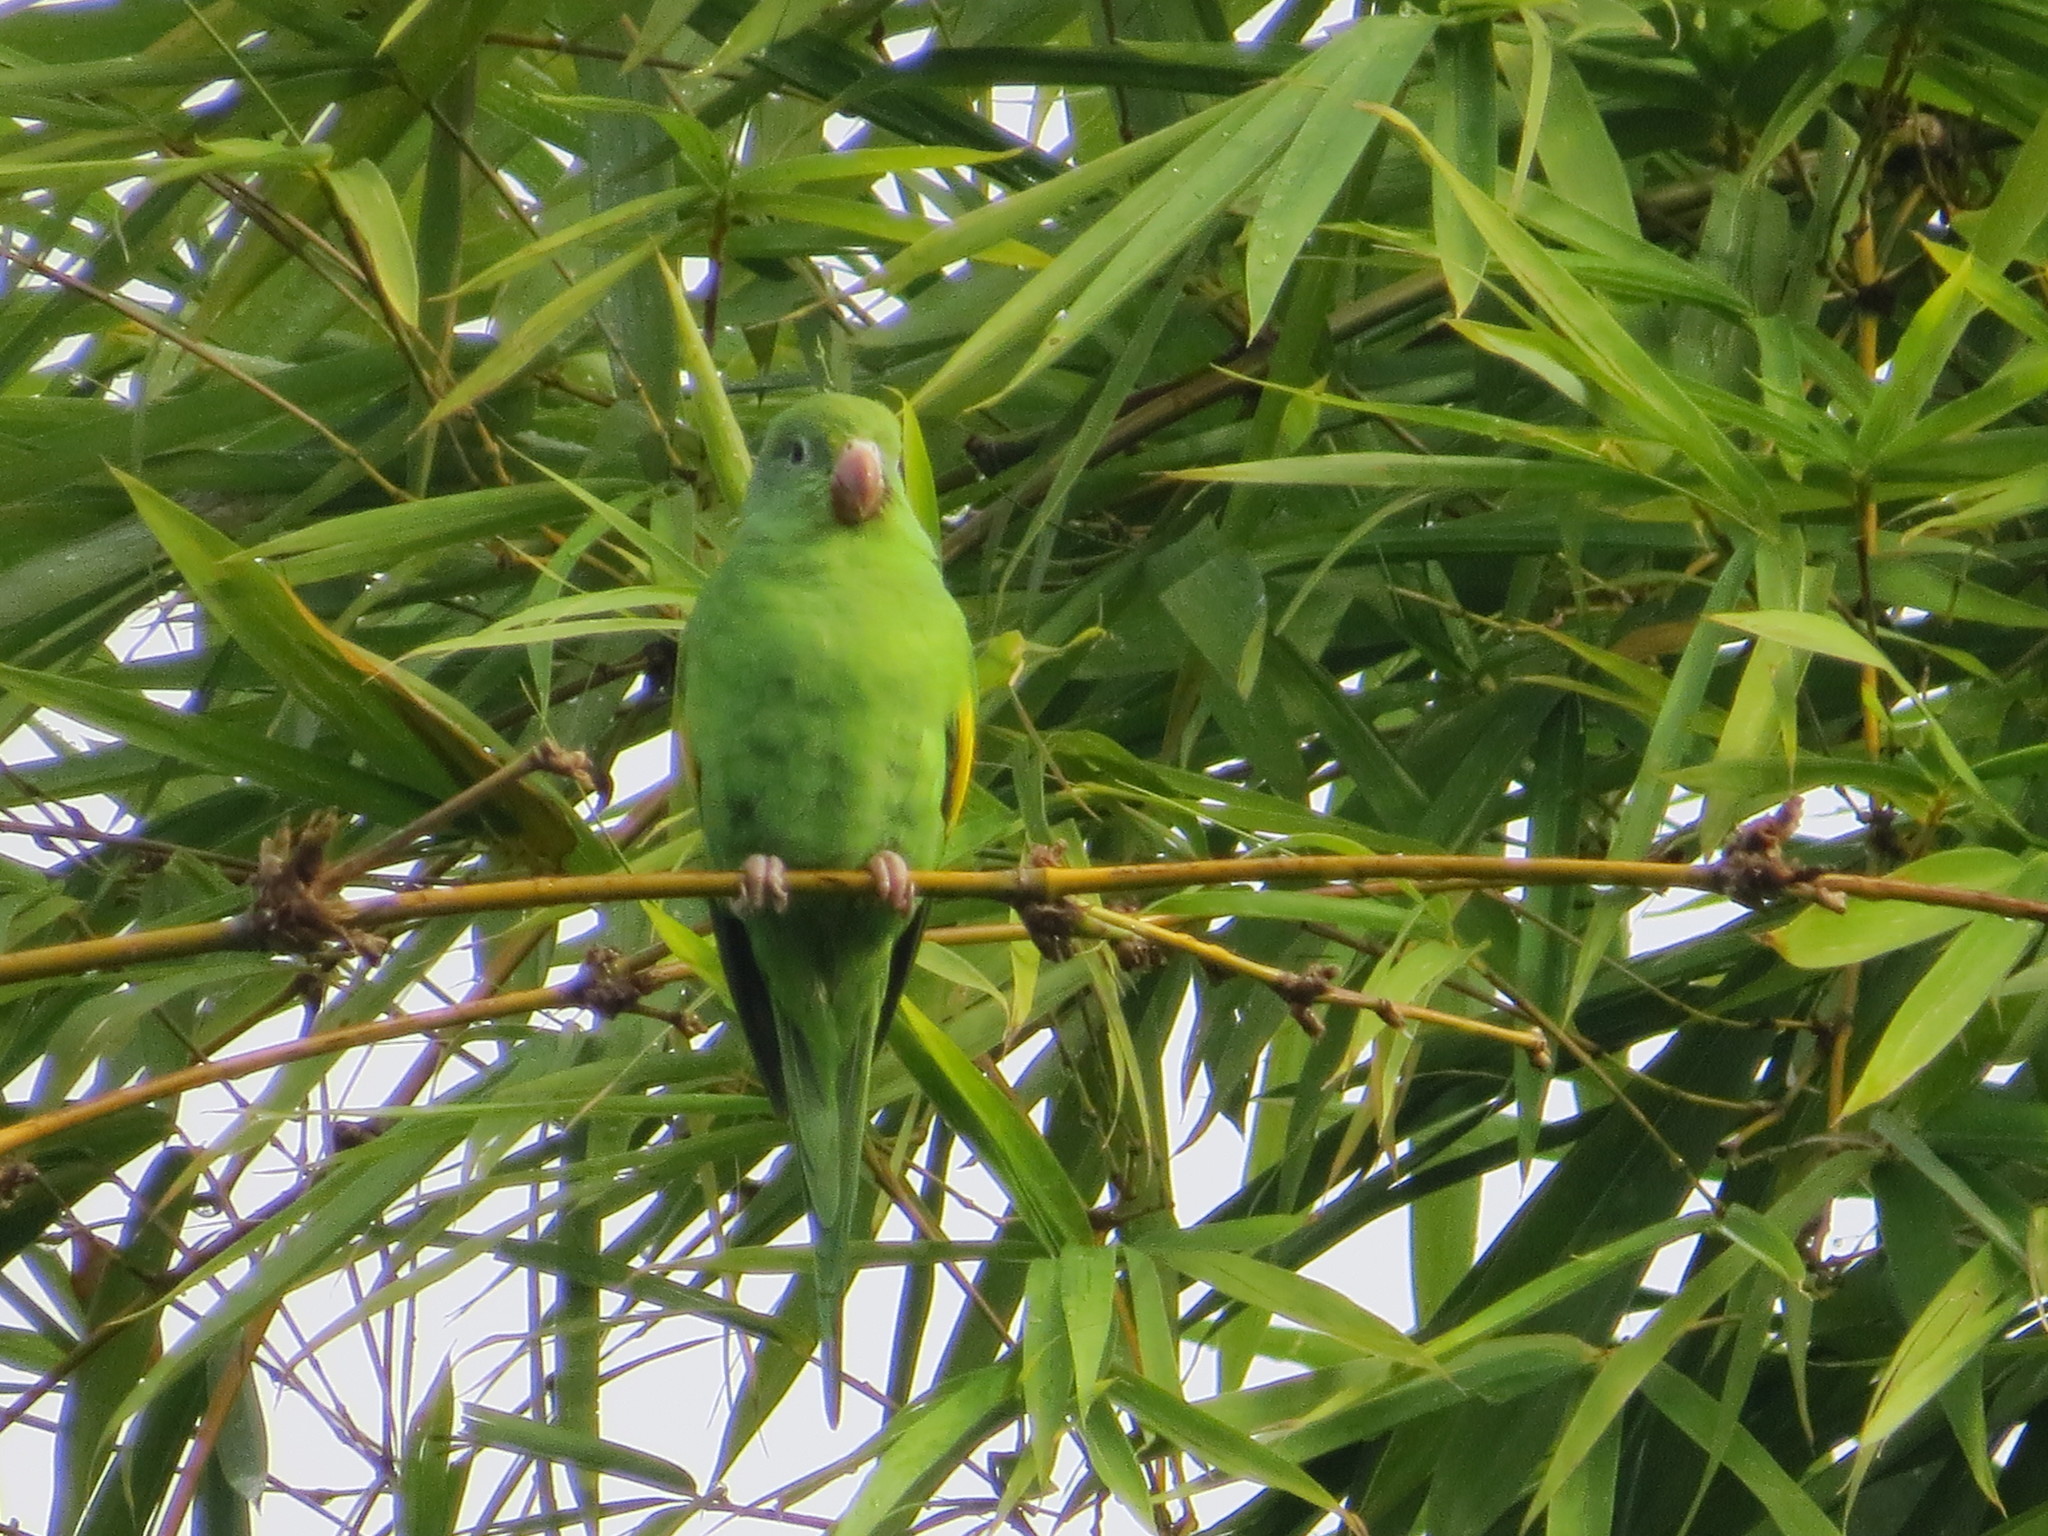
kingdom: Animalia
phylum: Chordata
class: Aves
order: Psittaciformes
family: Psittacidae
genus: Brotogeris
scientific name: Brotogeris chiriri
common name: Yellow-chevroned parakeet
